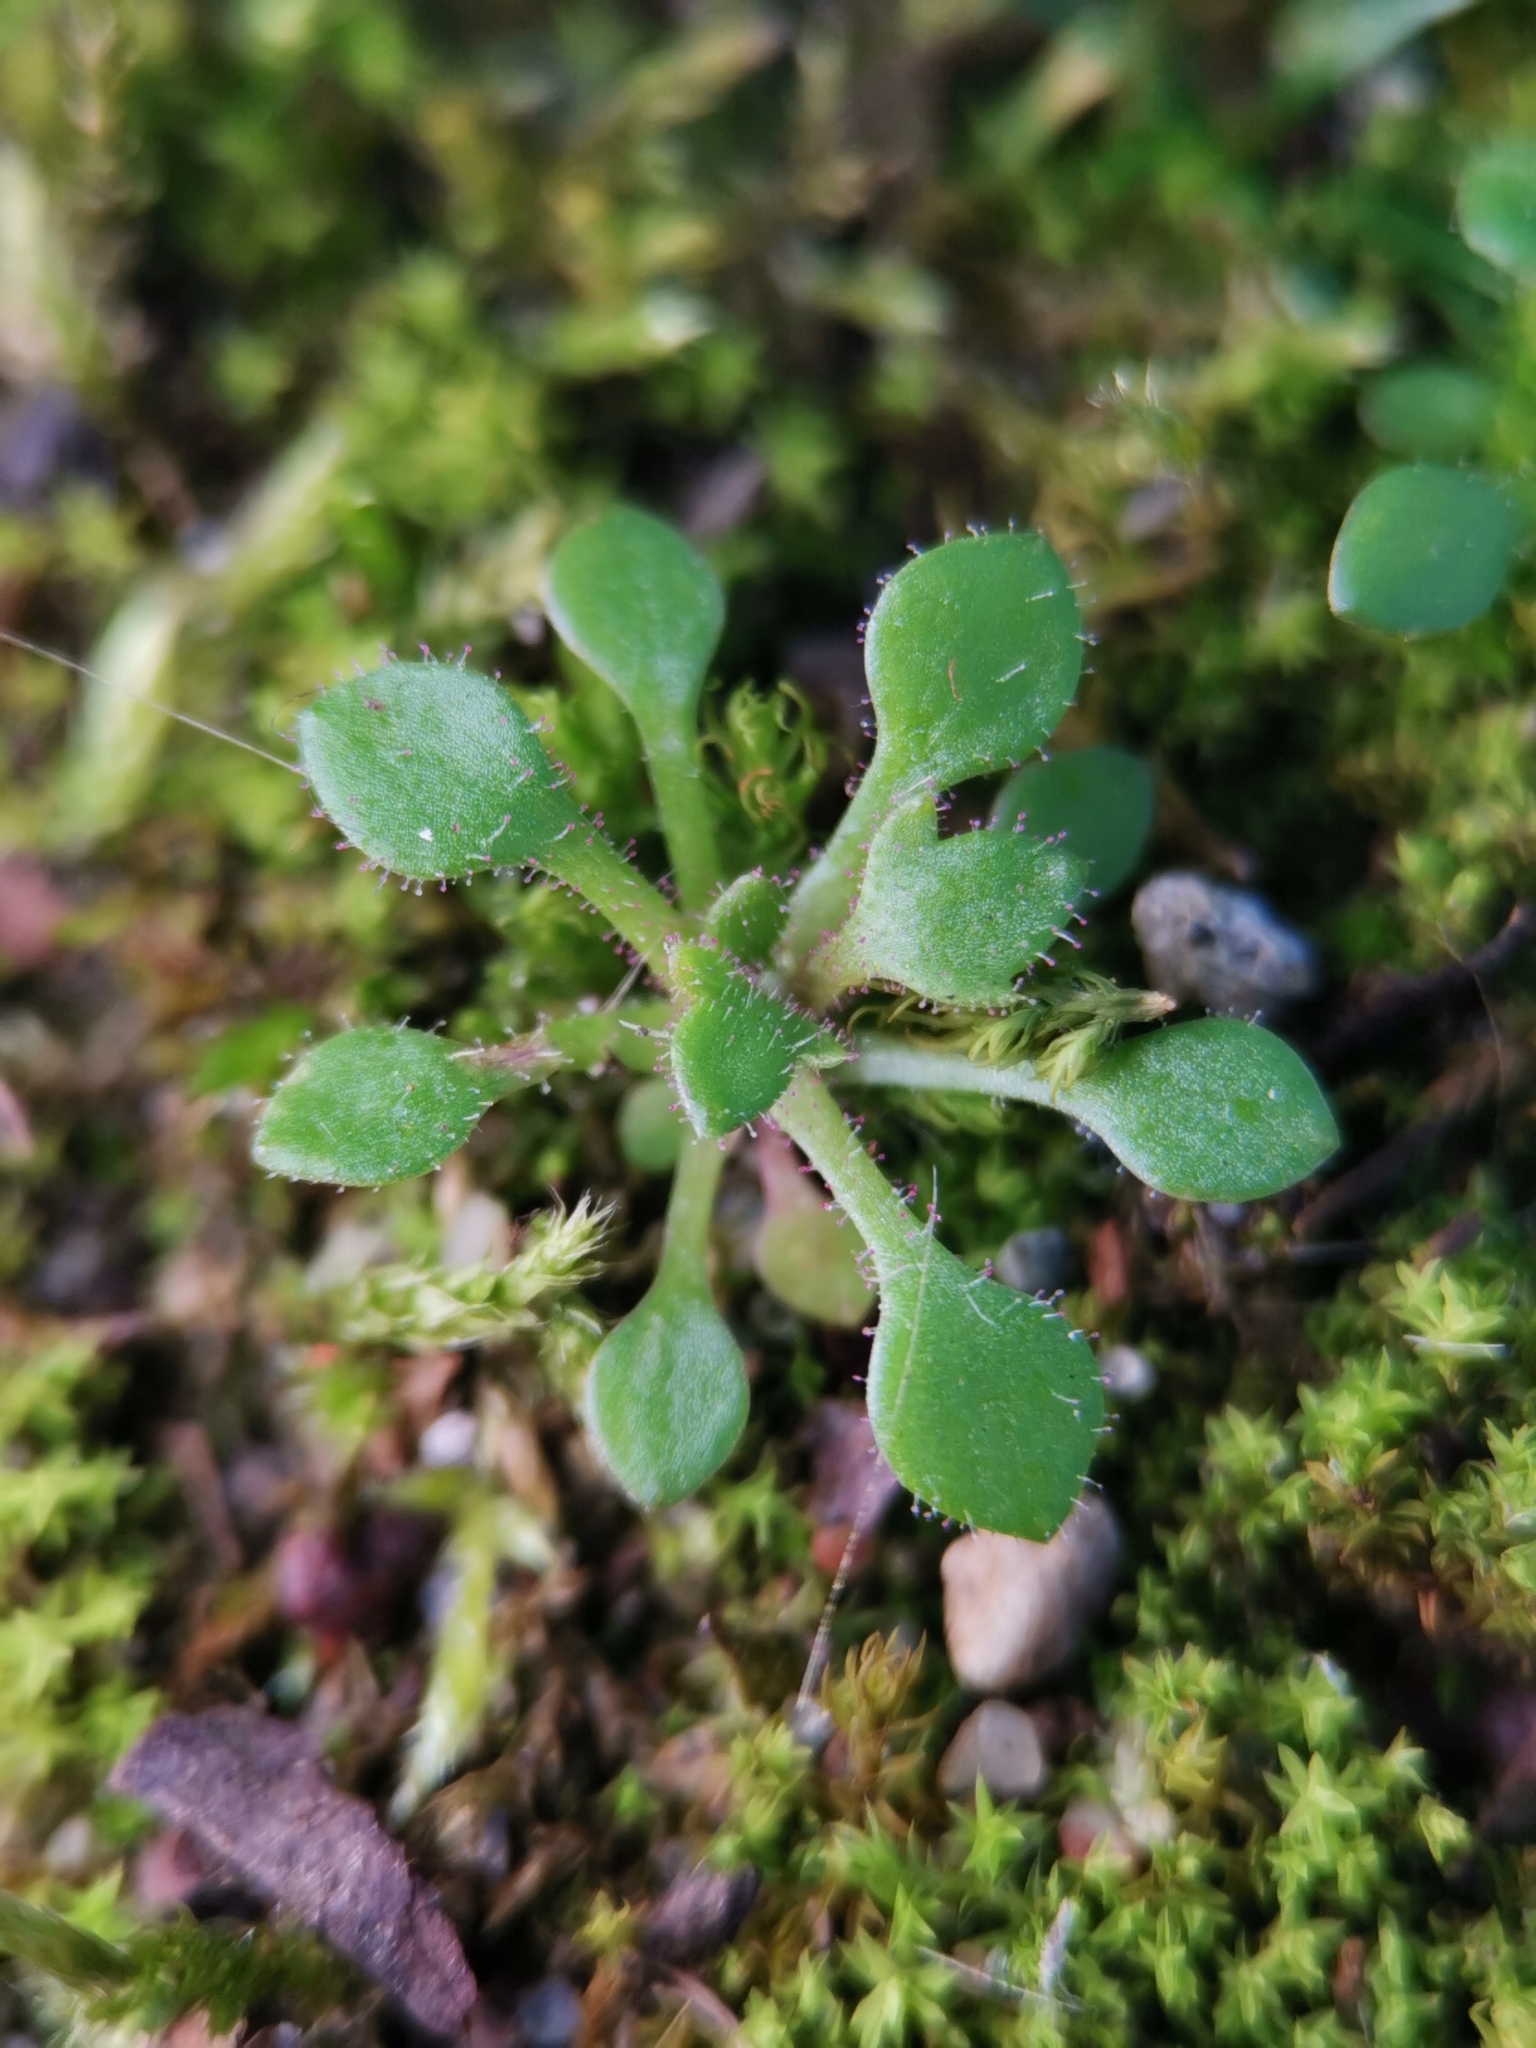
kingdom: Plantae
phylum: Tracheophyta
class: Magnoliopsida
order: Saxifragales
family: Saxifragaceae
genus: Saxifraga
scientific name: Saxifraga tridactylites
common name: Rue-leaved saxifrage
